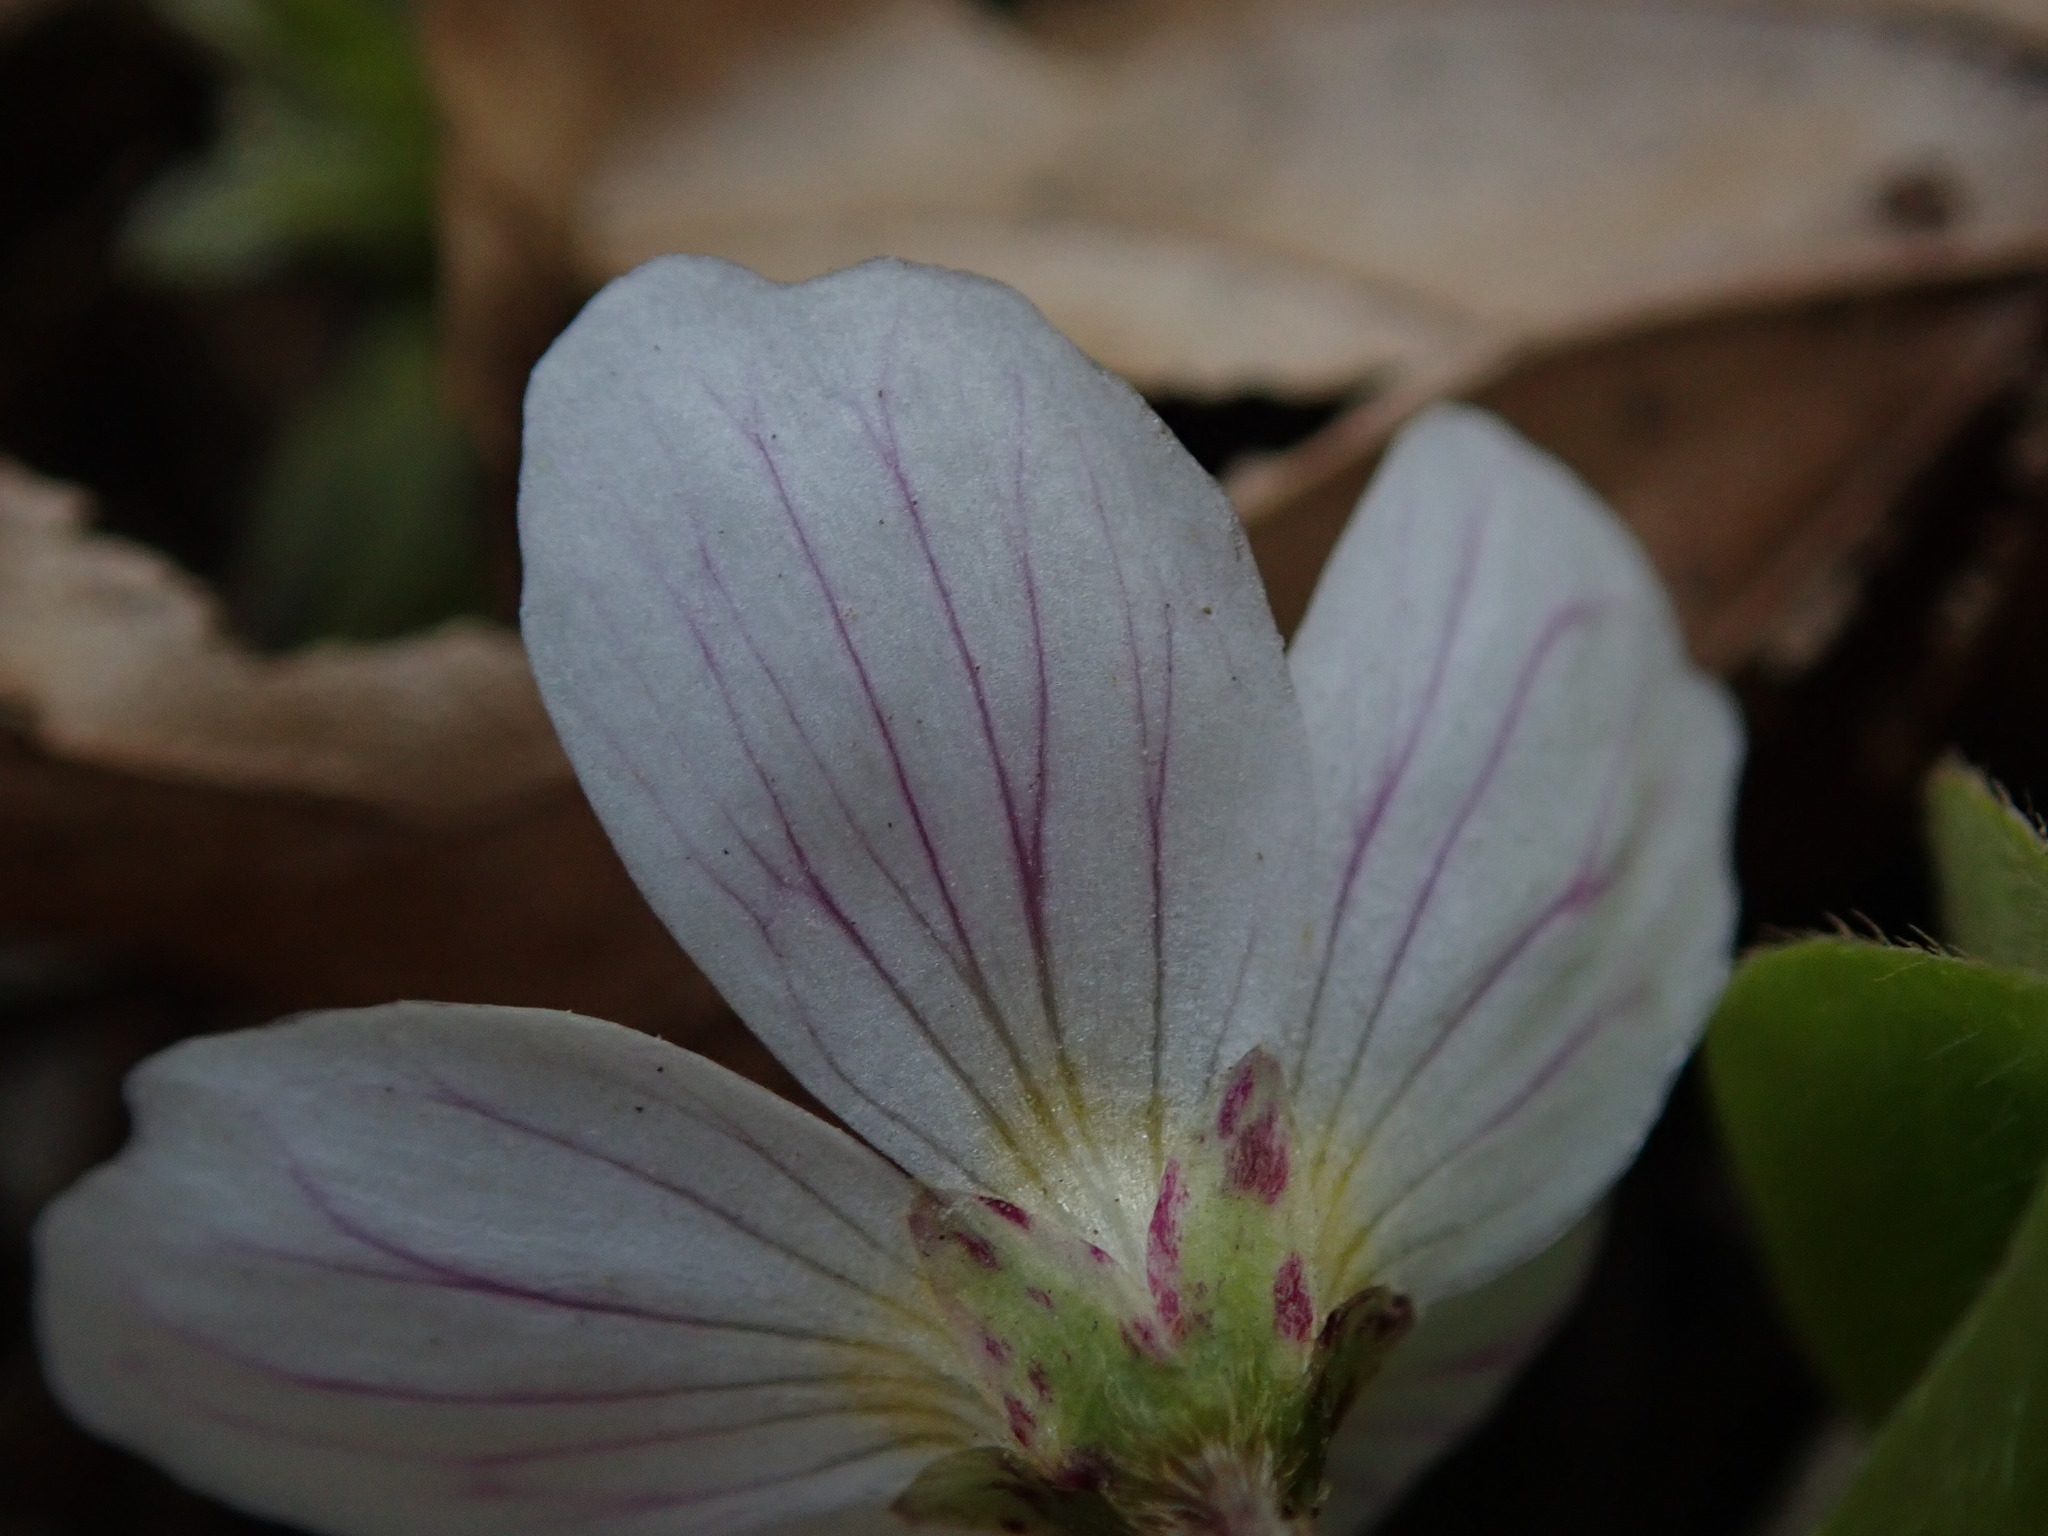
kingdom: Plantae
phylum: Tracheophyta
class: Magnoliopsida
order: Oxalidales
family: Oxalidaceae
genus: Oxalis
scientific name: Oxalis acetosella
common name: Wood-sorrel
